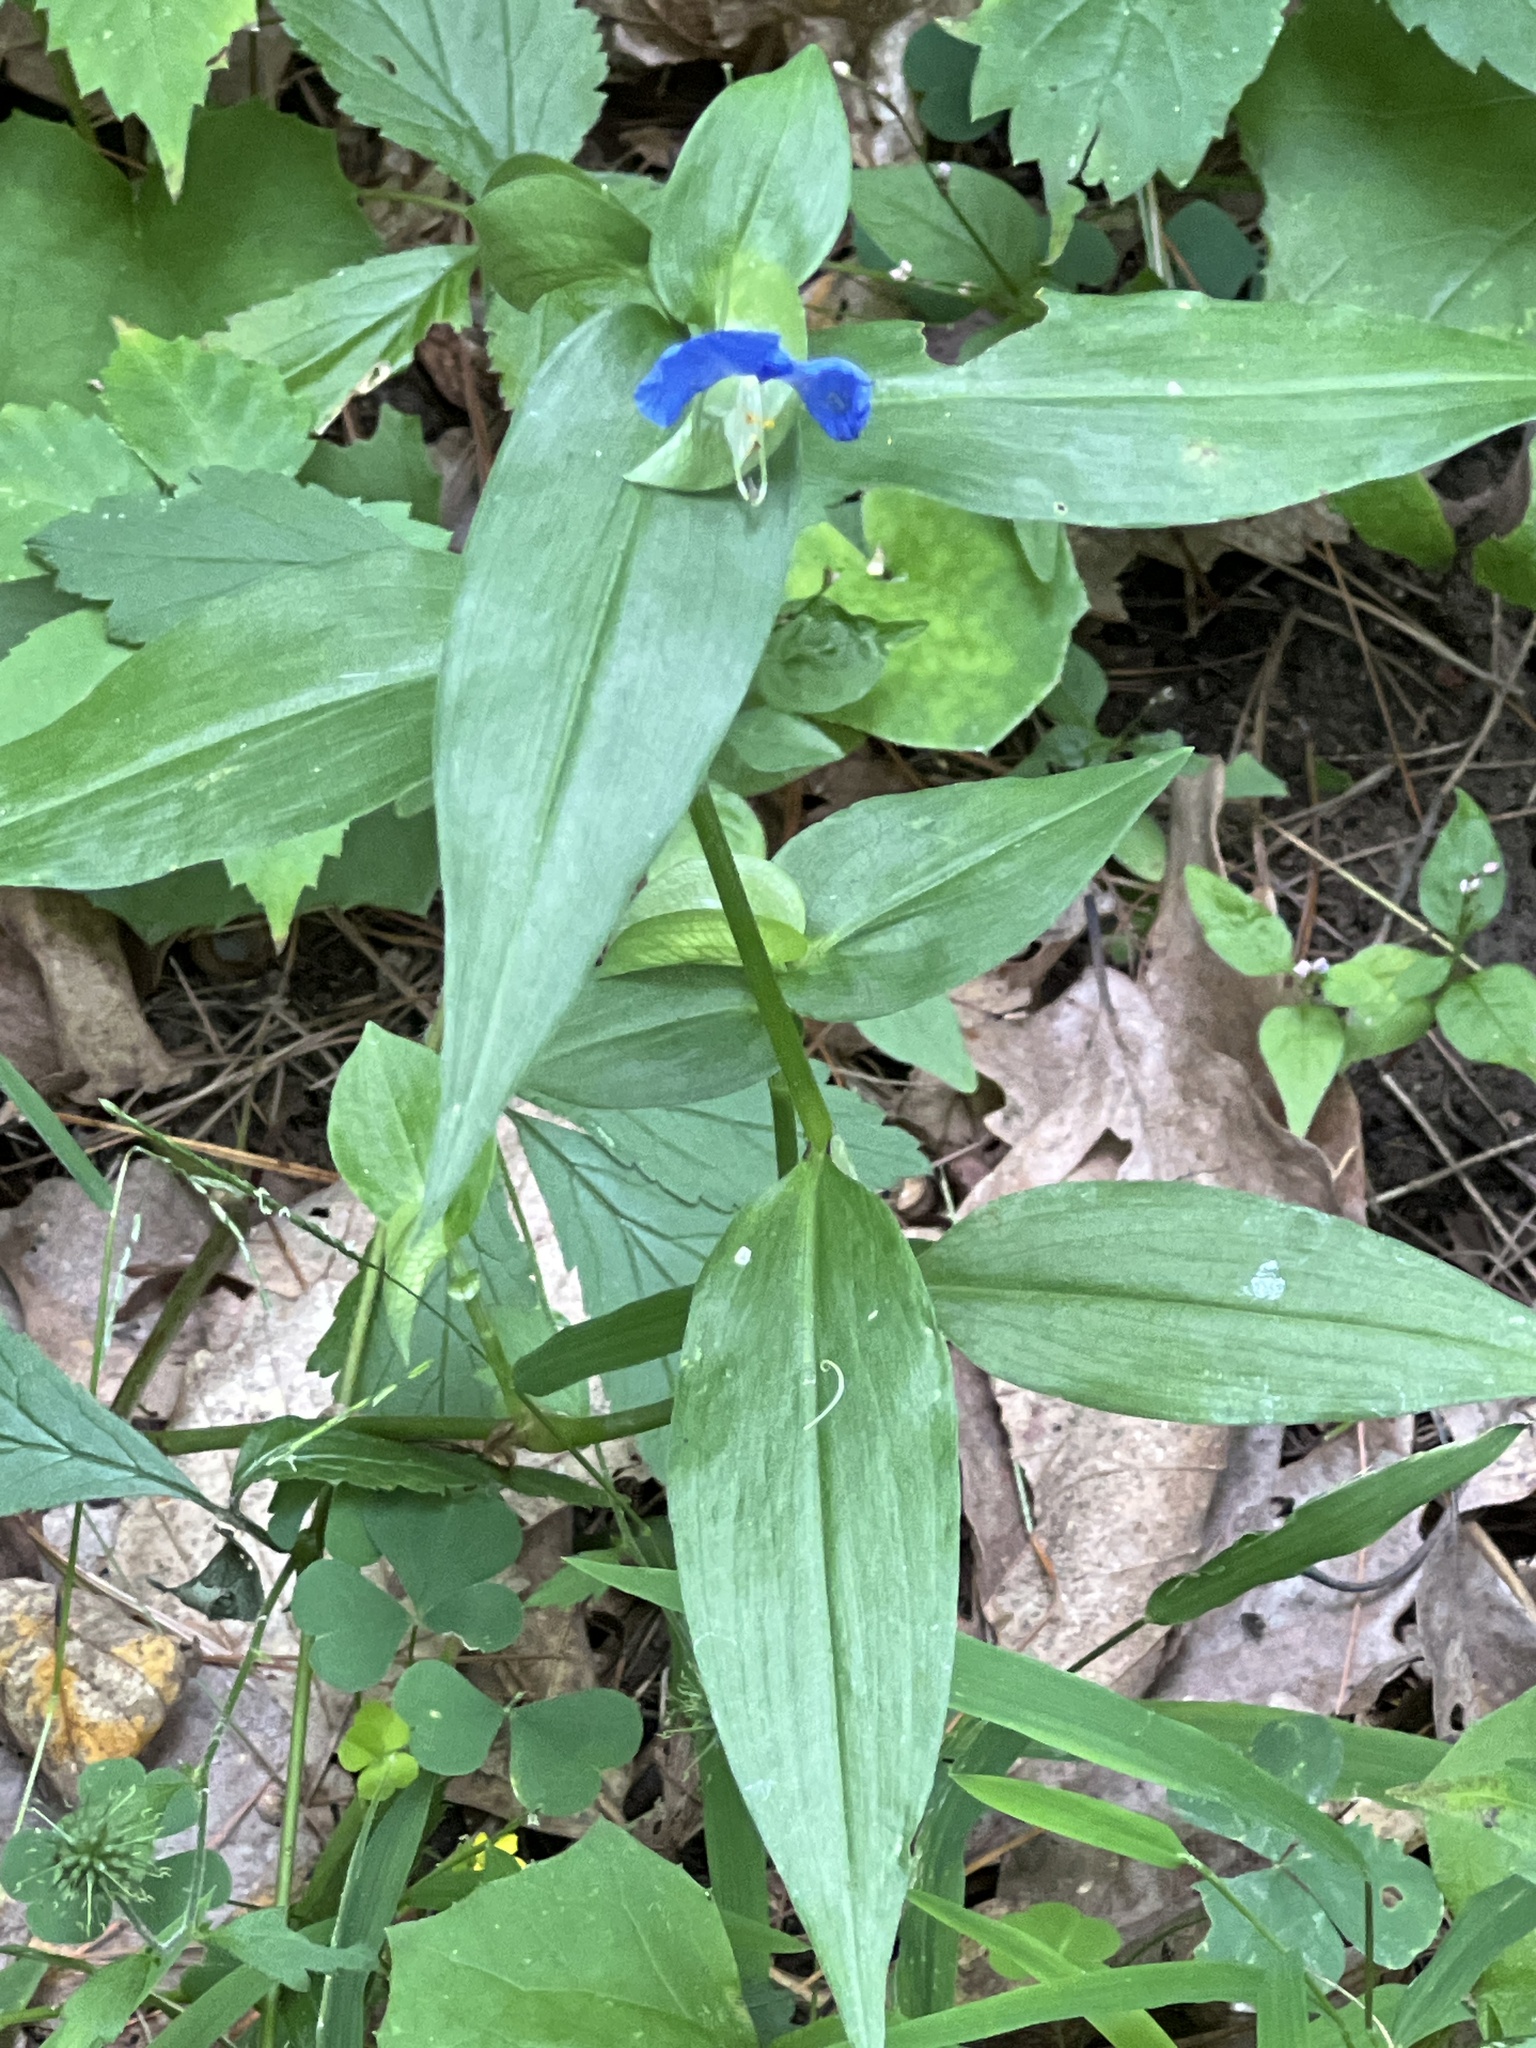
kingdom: Plantae
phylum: Tracheophyta
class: Liliopsida
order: Commelinales
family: Commelinaceae
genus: Commelina
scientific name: Commelina communis
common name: Asiatic dayflower
